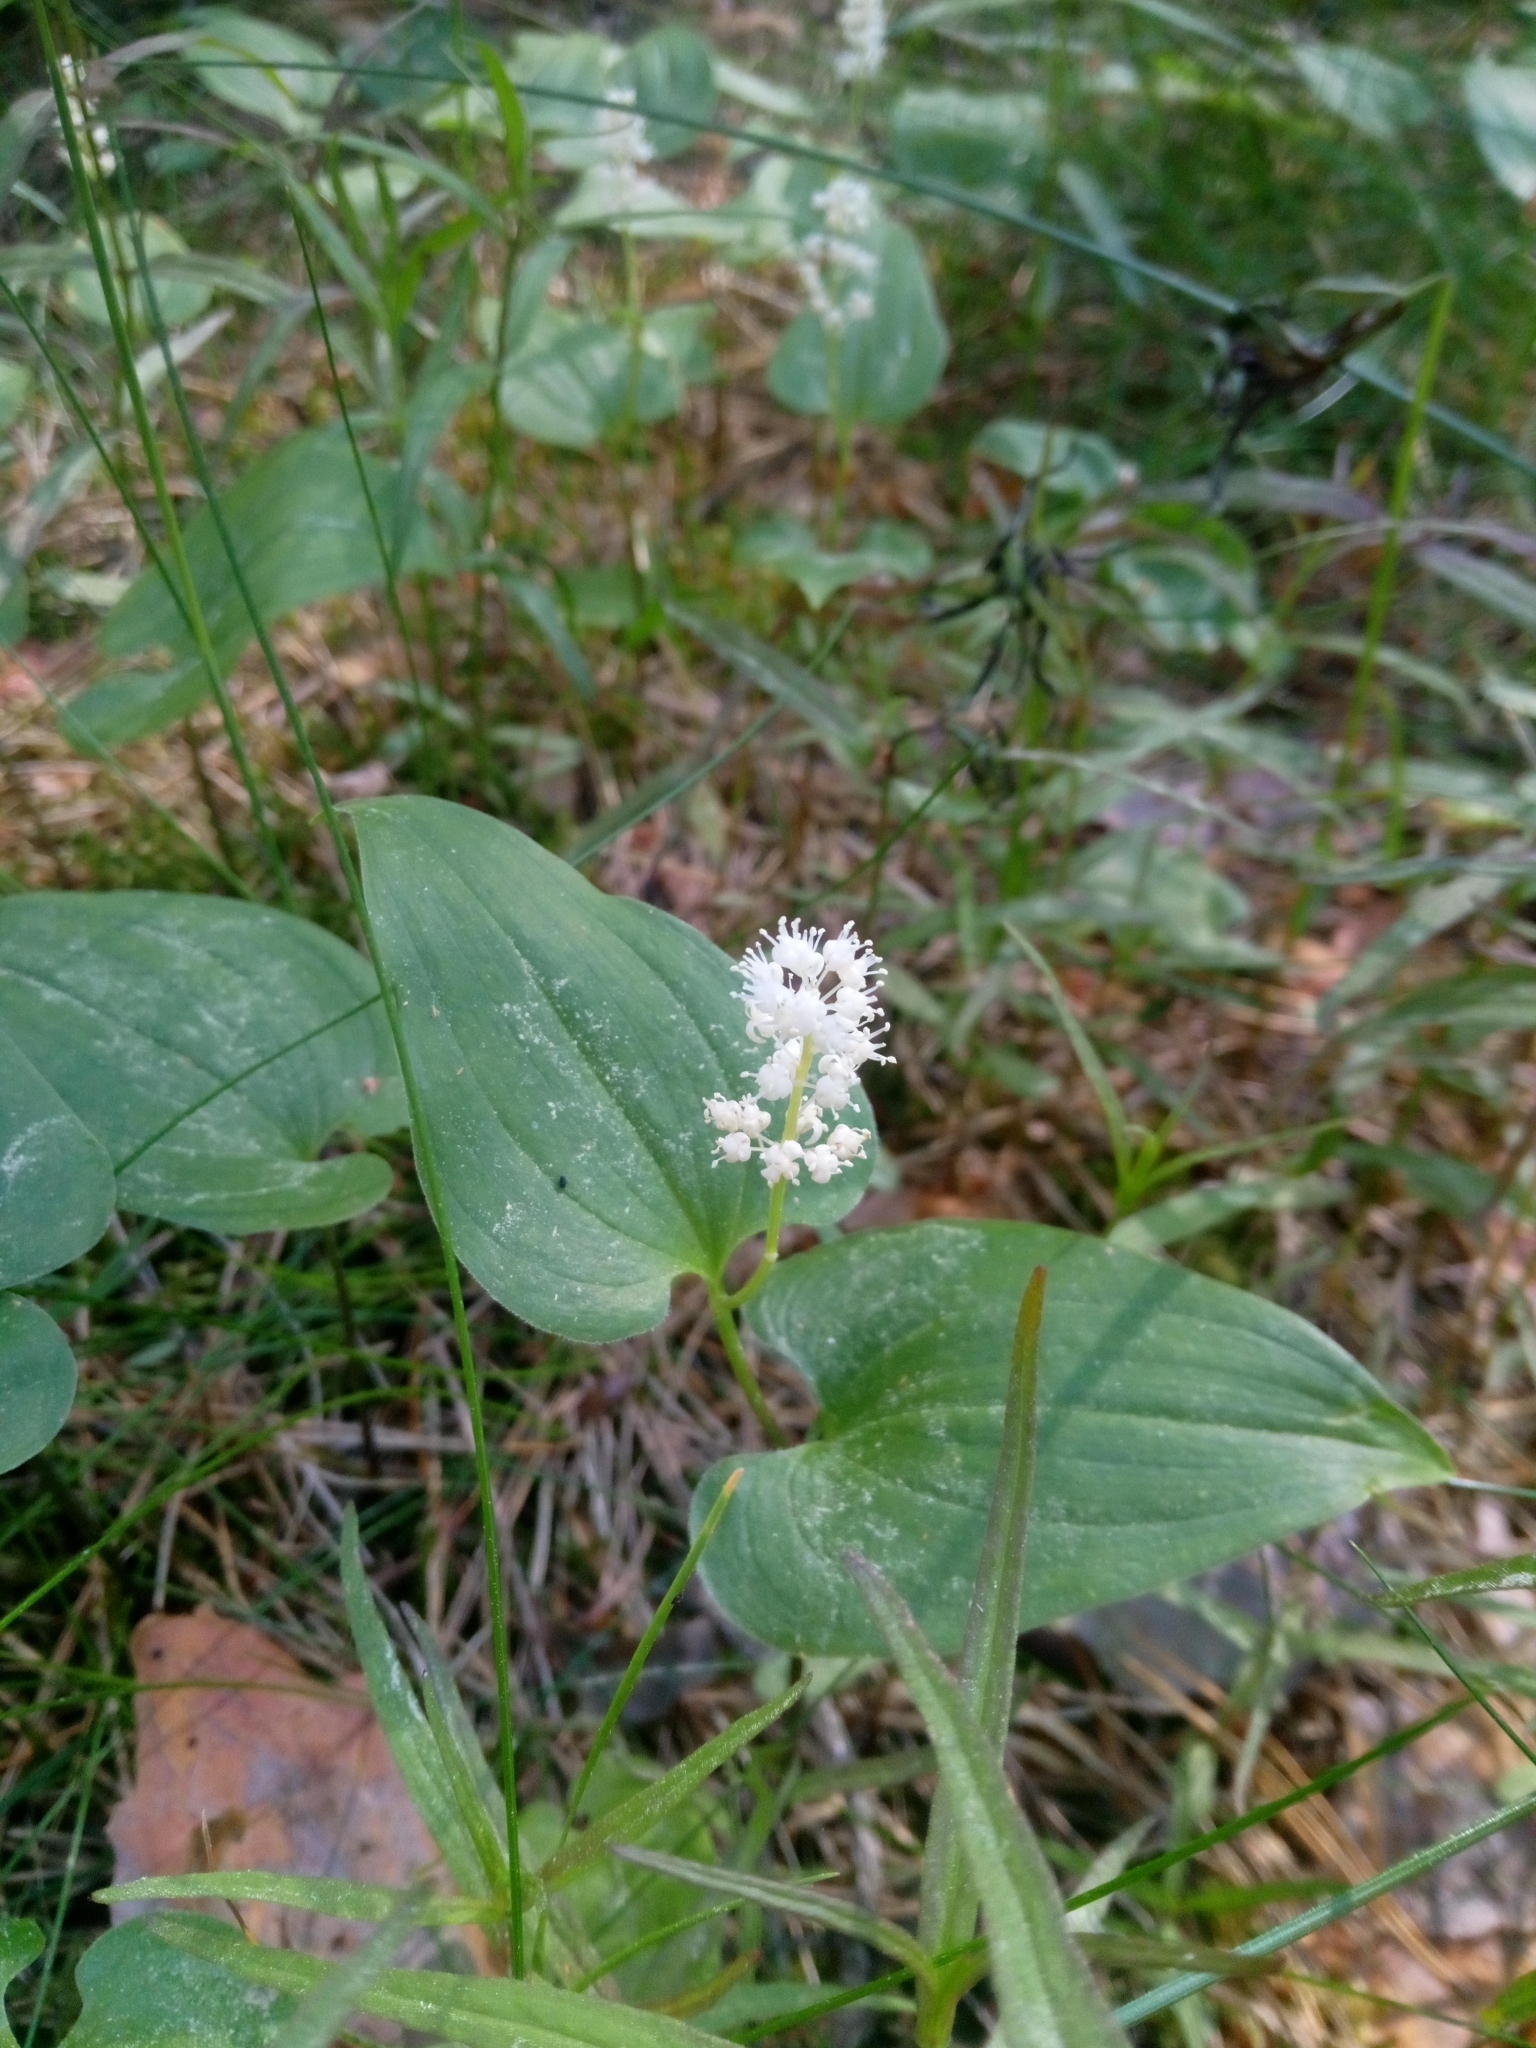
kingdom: Plantae
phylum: Tracheophyta
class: Liliopsida
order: Asparagales
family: Asparagaceae
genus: Maianthemum
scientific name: Maianthemum bifolium
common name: May lily
